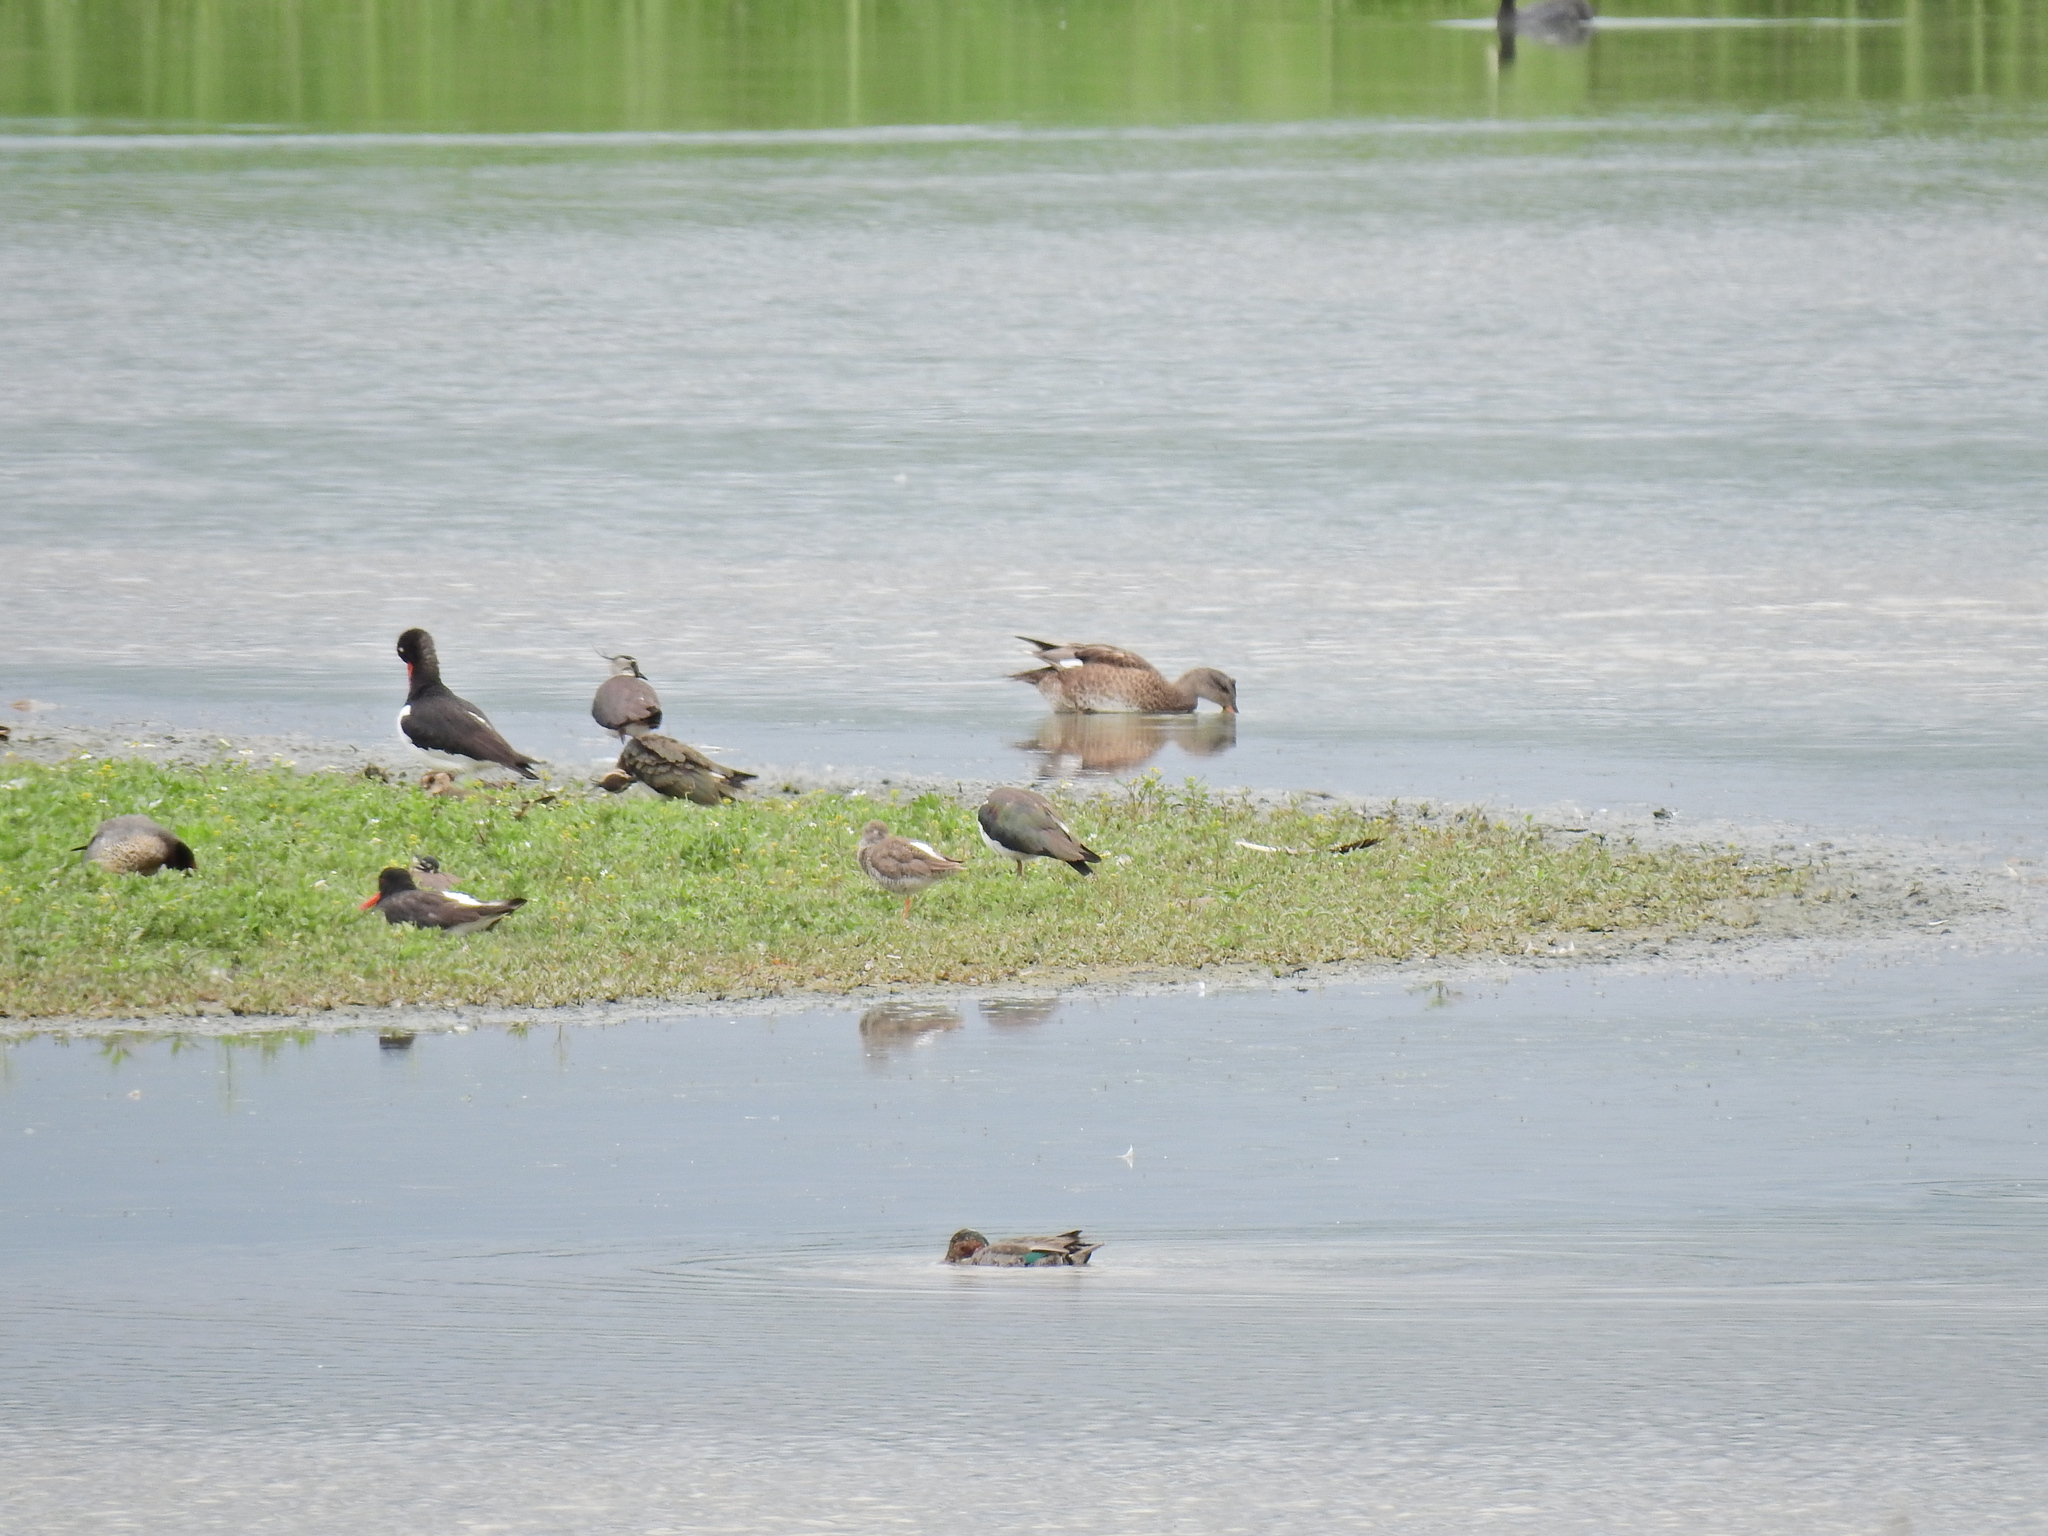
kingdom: Animalia
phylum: Chordata
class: Aves
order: Anseriformes
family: Anatidae
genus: Mareca
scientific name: Mareca strepera
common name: Gadwall
